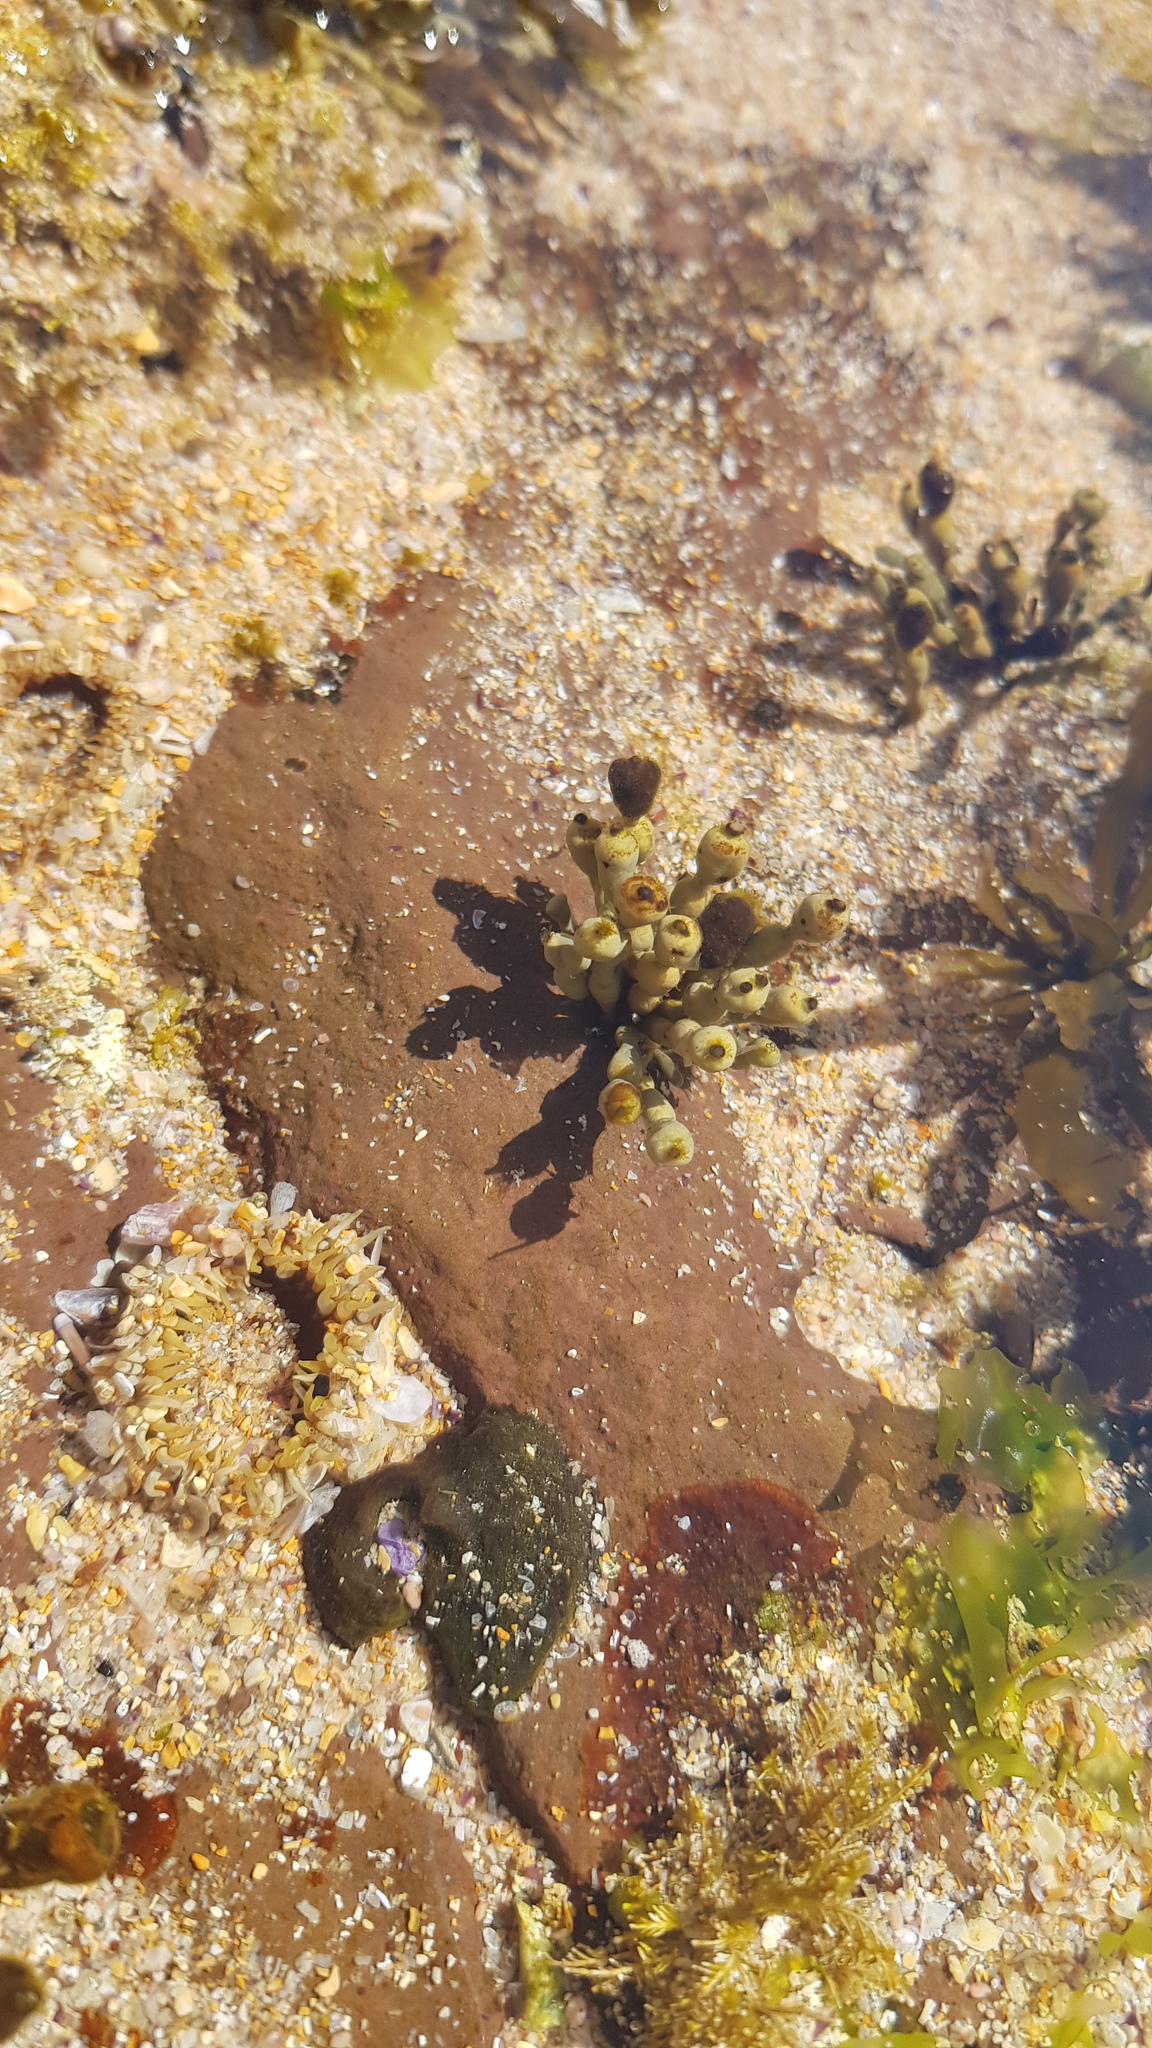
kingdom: Chromista
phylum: Ochrophyta
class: Phaeophyceae
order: Fucales
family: Hormosiraceae
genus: Hormosira
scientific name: Hormosira banksii
